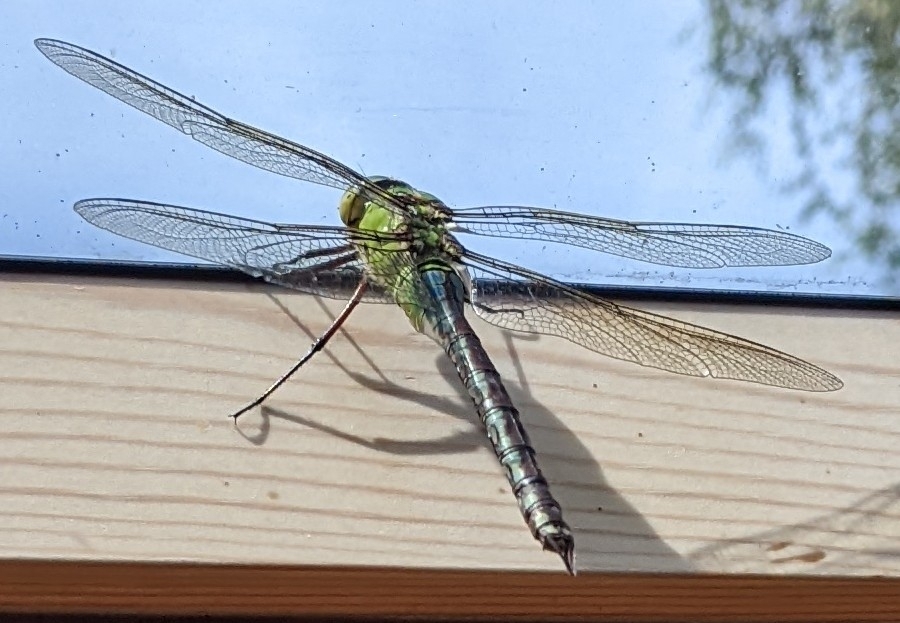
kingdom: Animalia
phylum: Arthropoda
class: Insecta
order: Odonata
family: Aeshnidae
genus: Anax
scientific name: Anax imperator
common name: Emperor dragonfly
